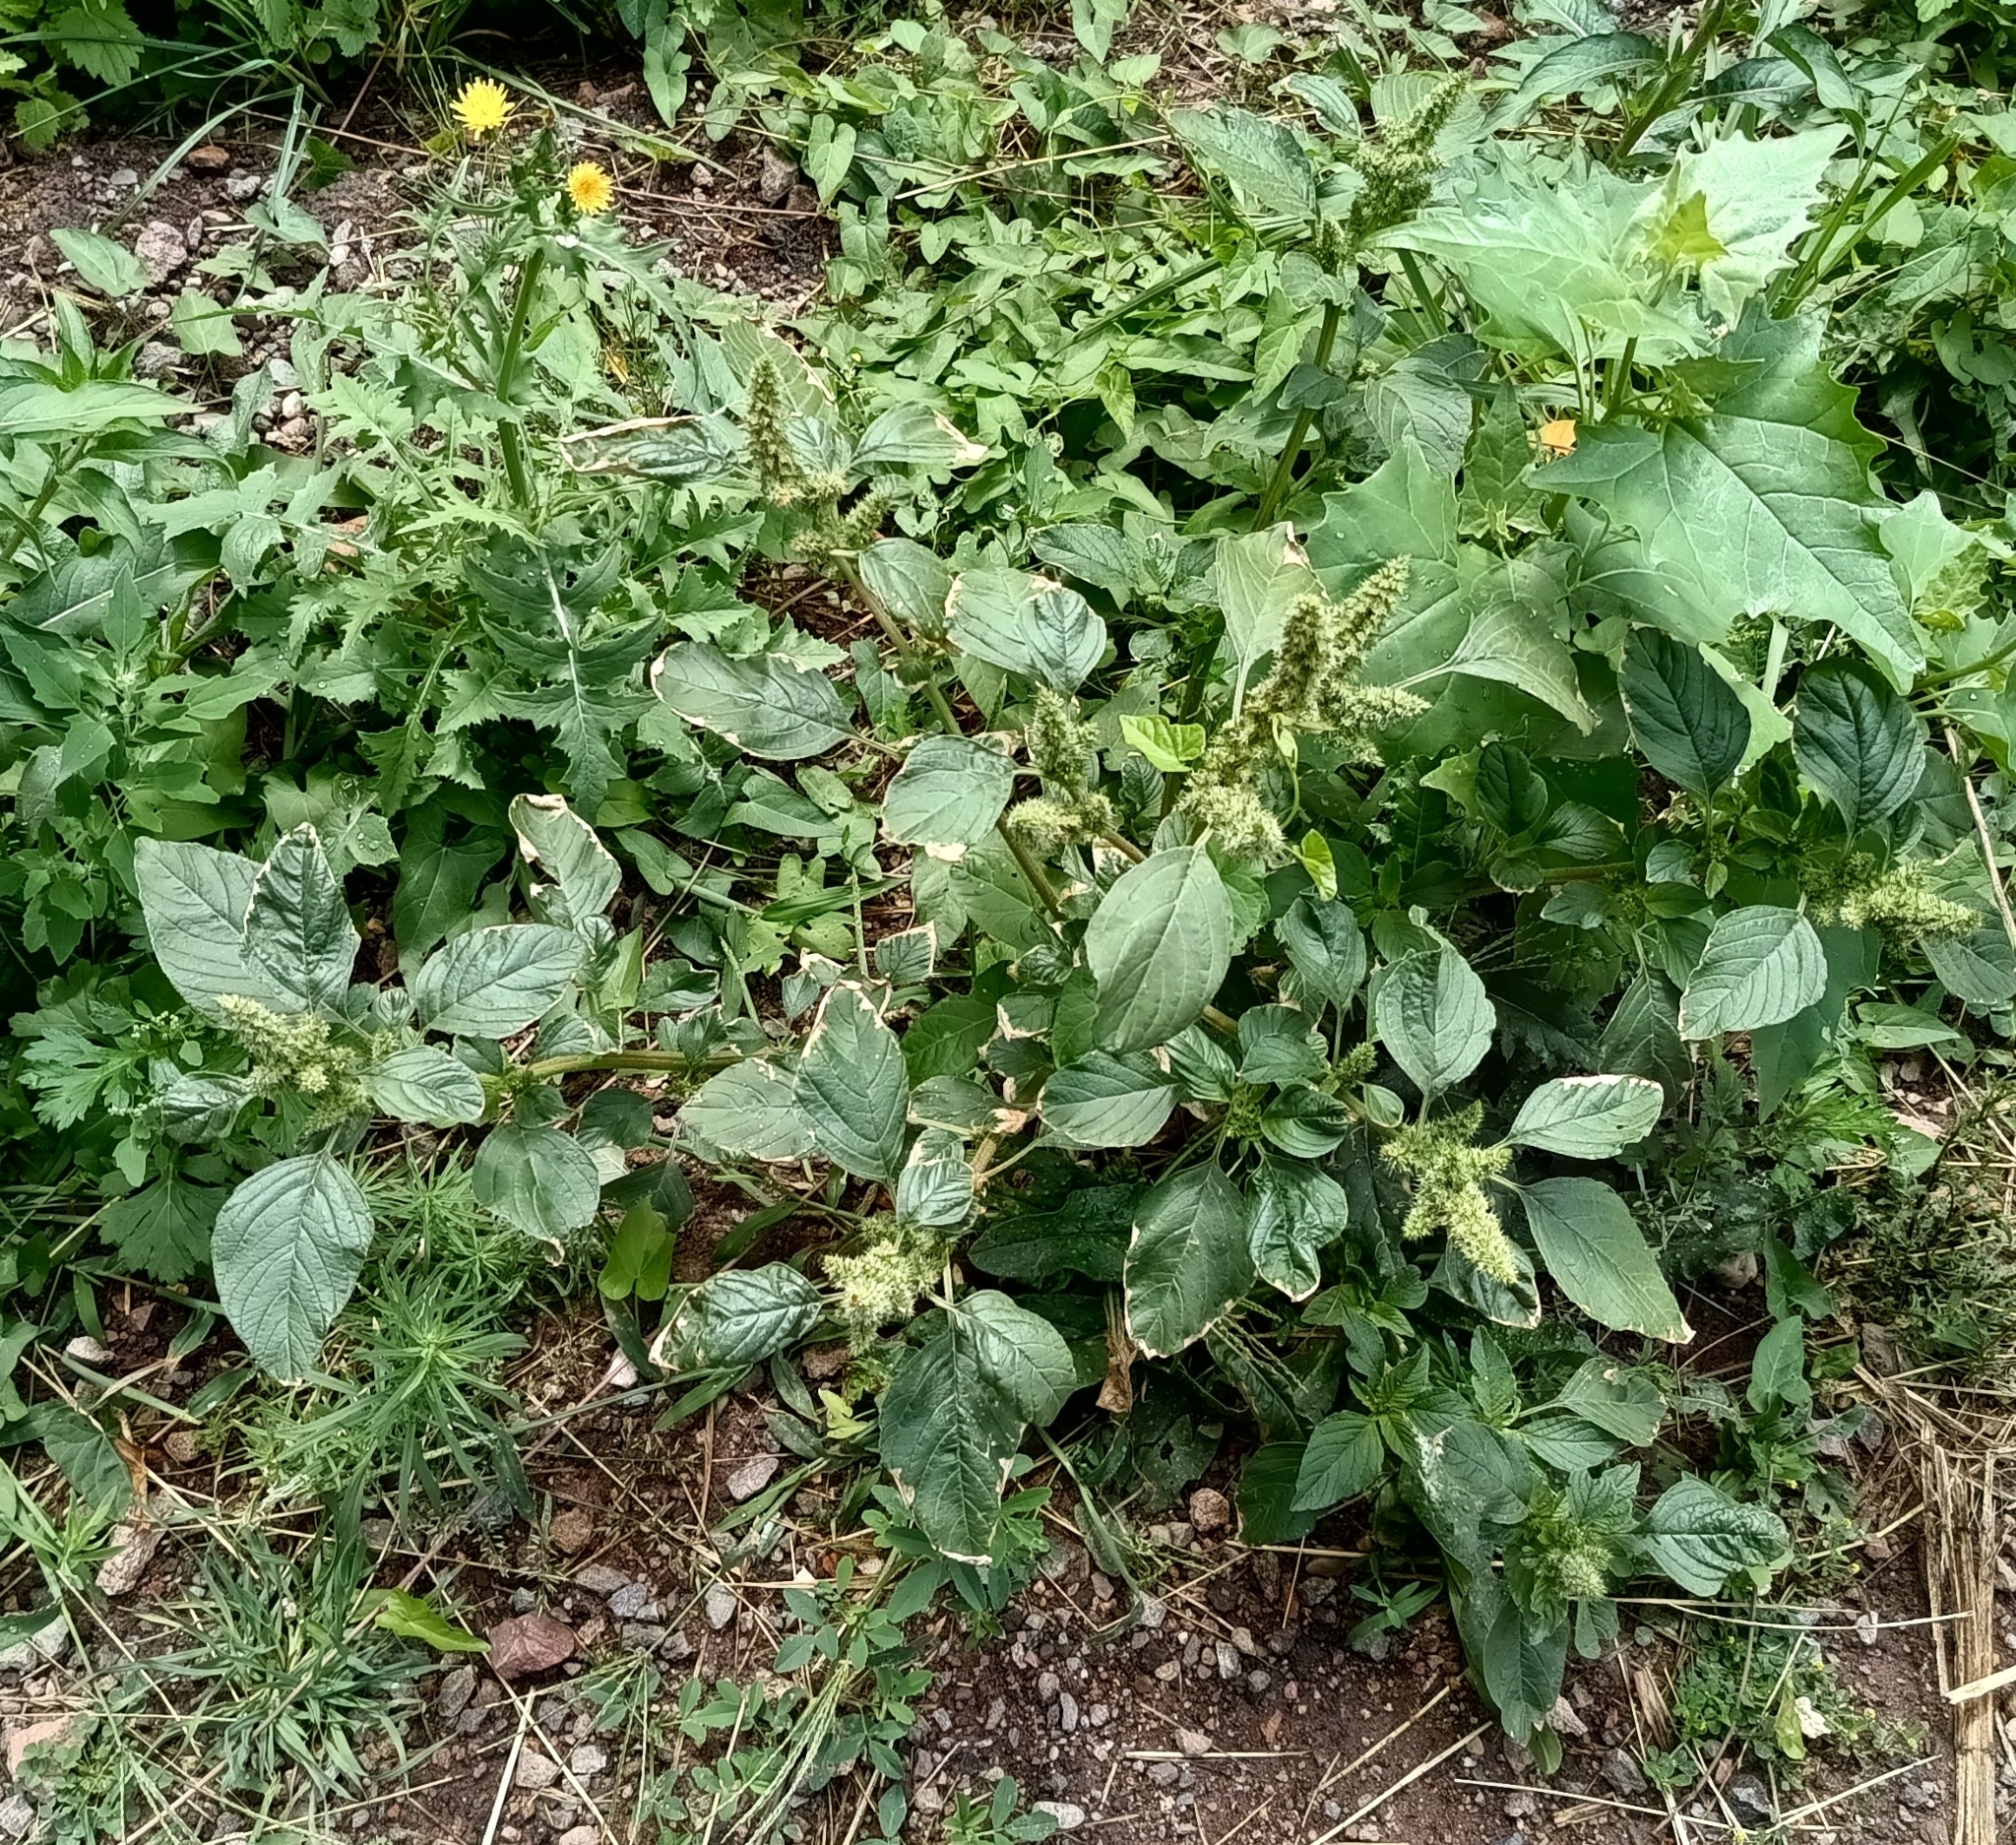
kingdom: Plantae
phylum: Tracheophyta
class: Magnoliopsida
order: Caryophyllales
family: Amaranthaceae
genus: Amaranthus
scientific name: Amaranthus retroflexus
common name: Redroot amaranth
